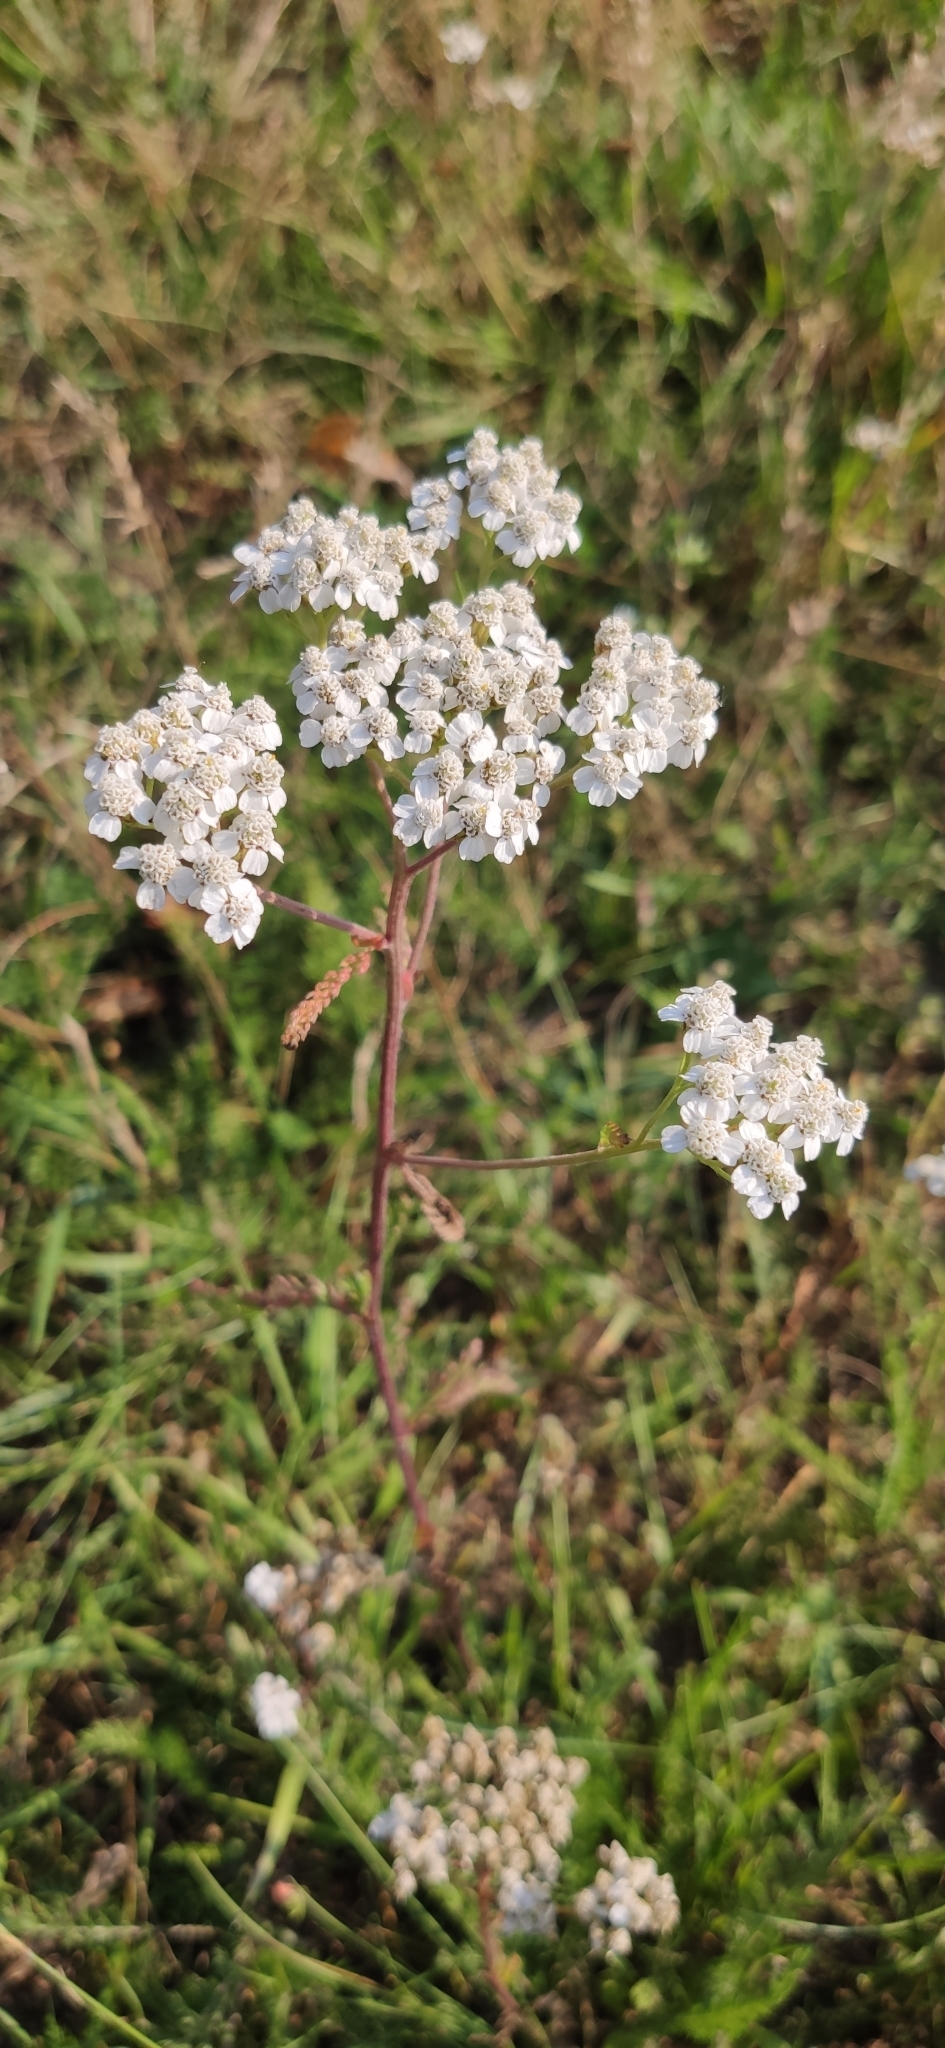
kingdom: Plantae
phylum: Tracheophyta
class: Magnoliopsida
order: Asterales
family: Asteraceae
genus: Achillea
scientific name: Achillea millefolium
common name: Yarrow
